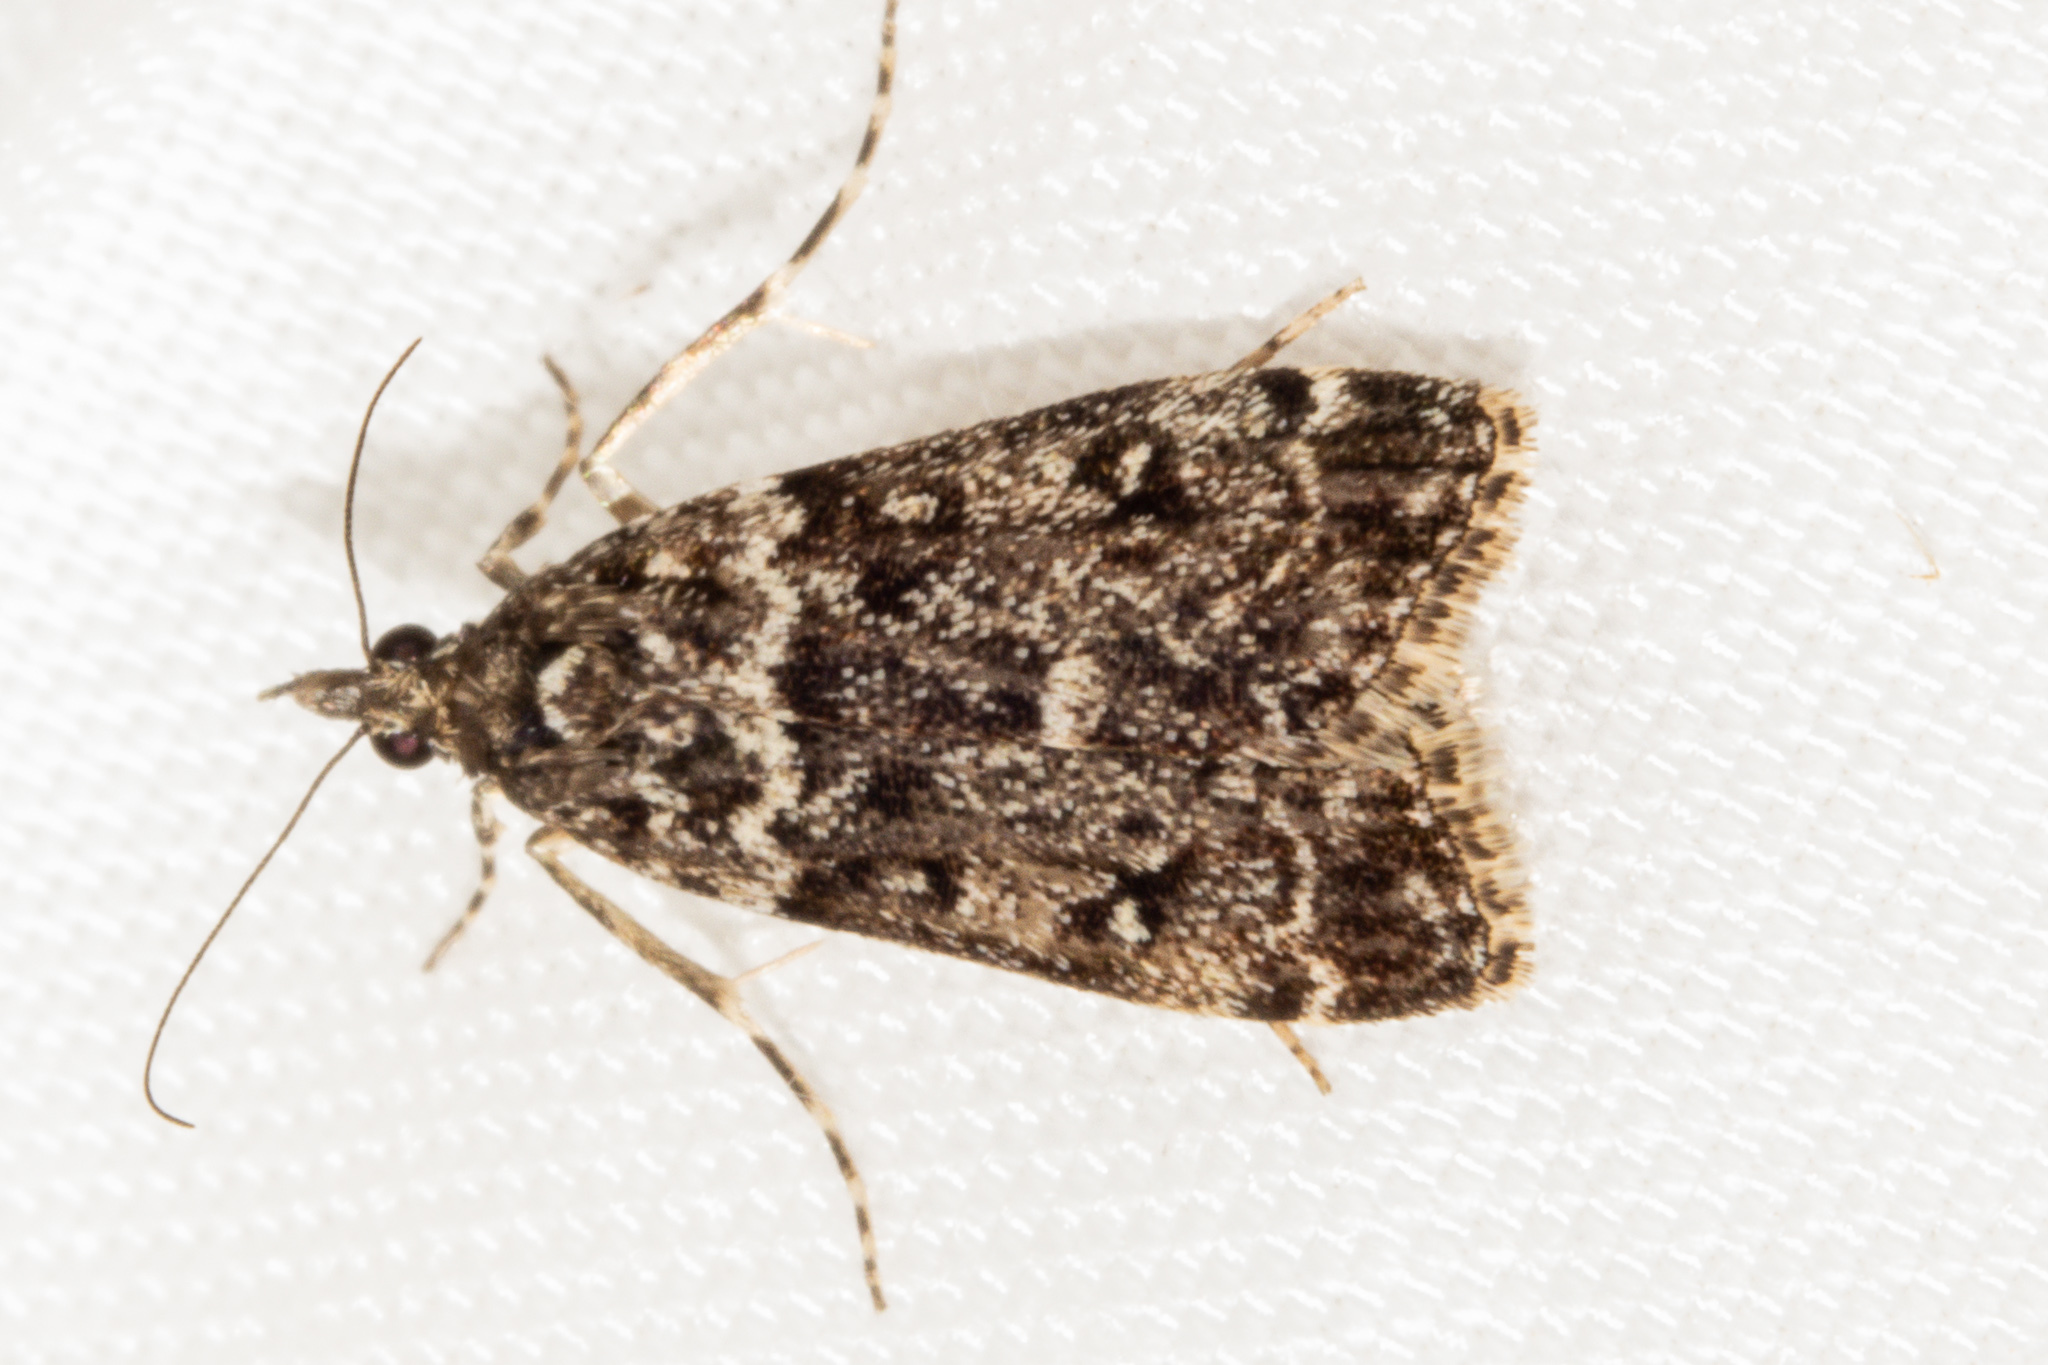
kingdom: Animalia
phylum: Arthropoda
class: Insecta
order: Lepidoptera
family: Crambidae
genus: Eudonia
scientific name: Eudonia philerga
